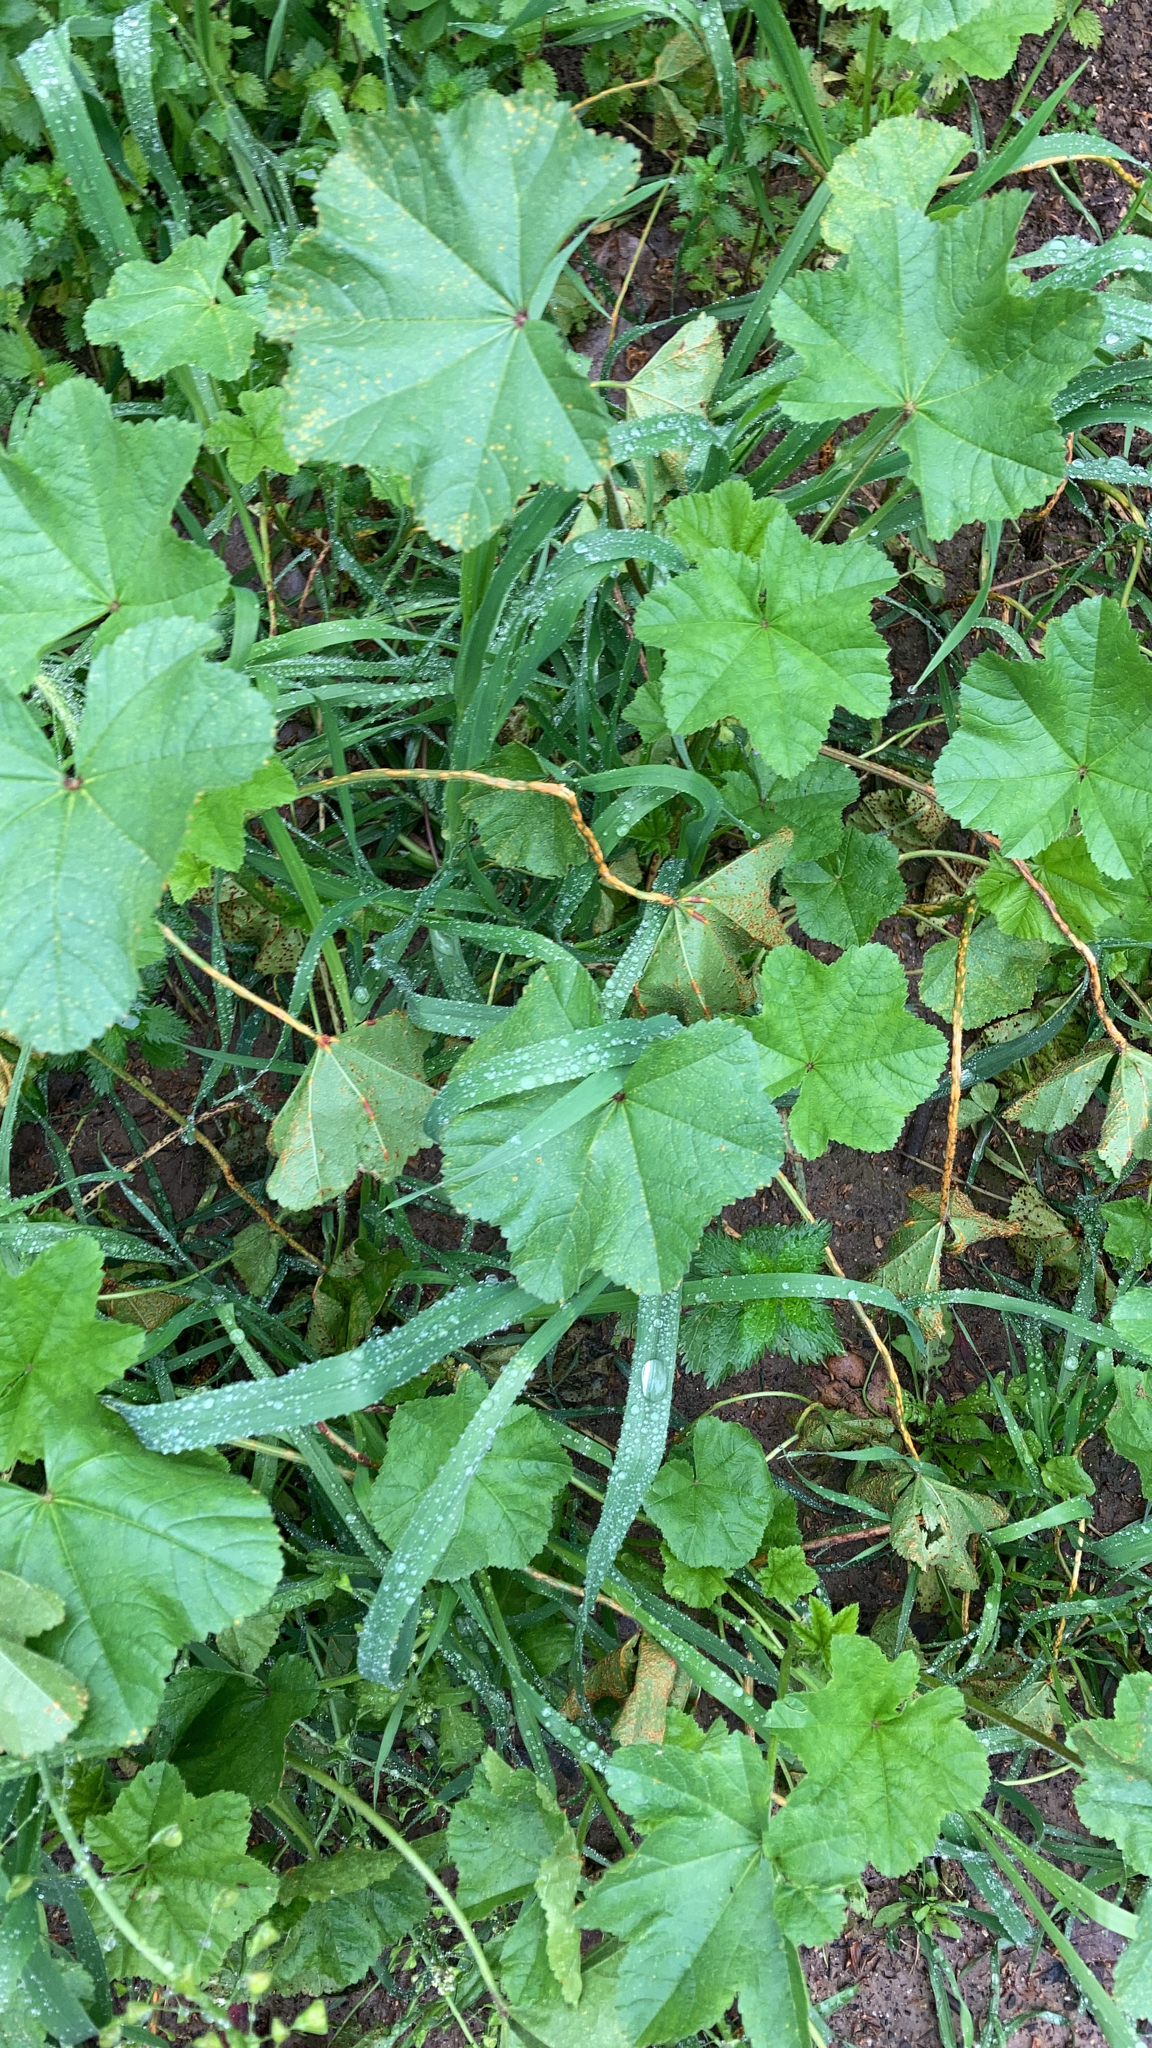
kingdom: Plantae
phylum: Tracheophyta
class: Magnoliopsida
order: Malvales
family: Malvaceae
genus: Malva
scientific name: Malva
